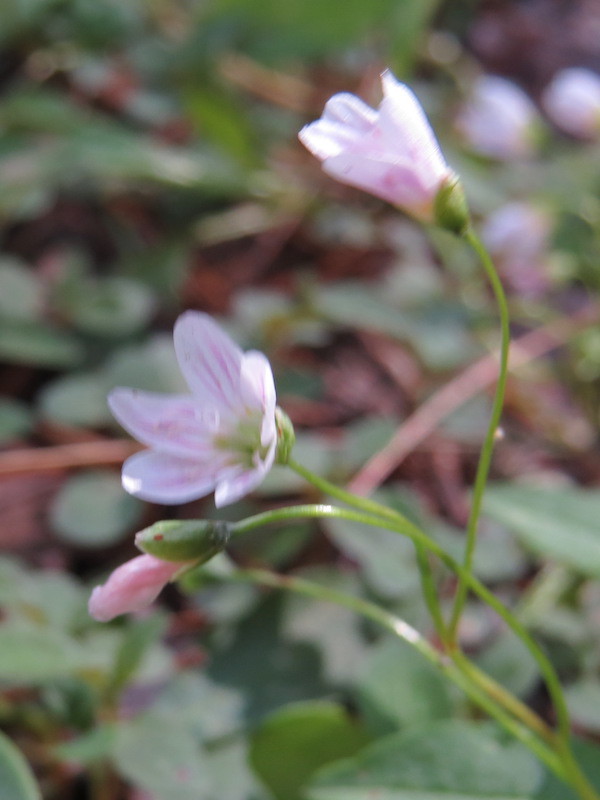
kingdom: Plantae
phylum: Tracheophyta
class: Magnoliopsida
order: Caryophyllales
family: Montiaceae
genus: Claytonia
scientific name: Claytonia caroliniana
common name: Carolina spring beauty
